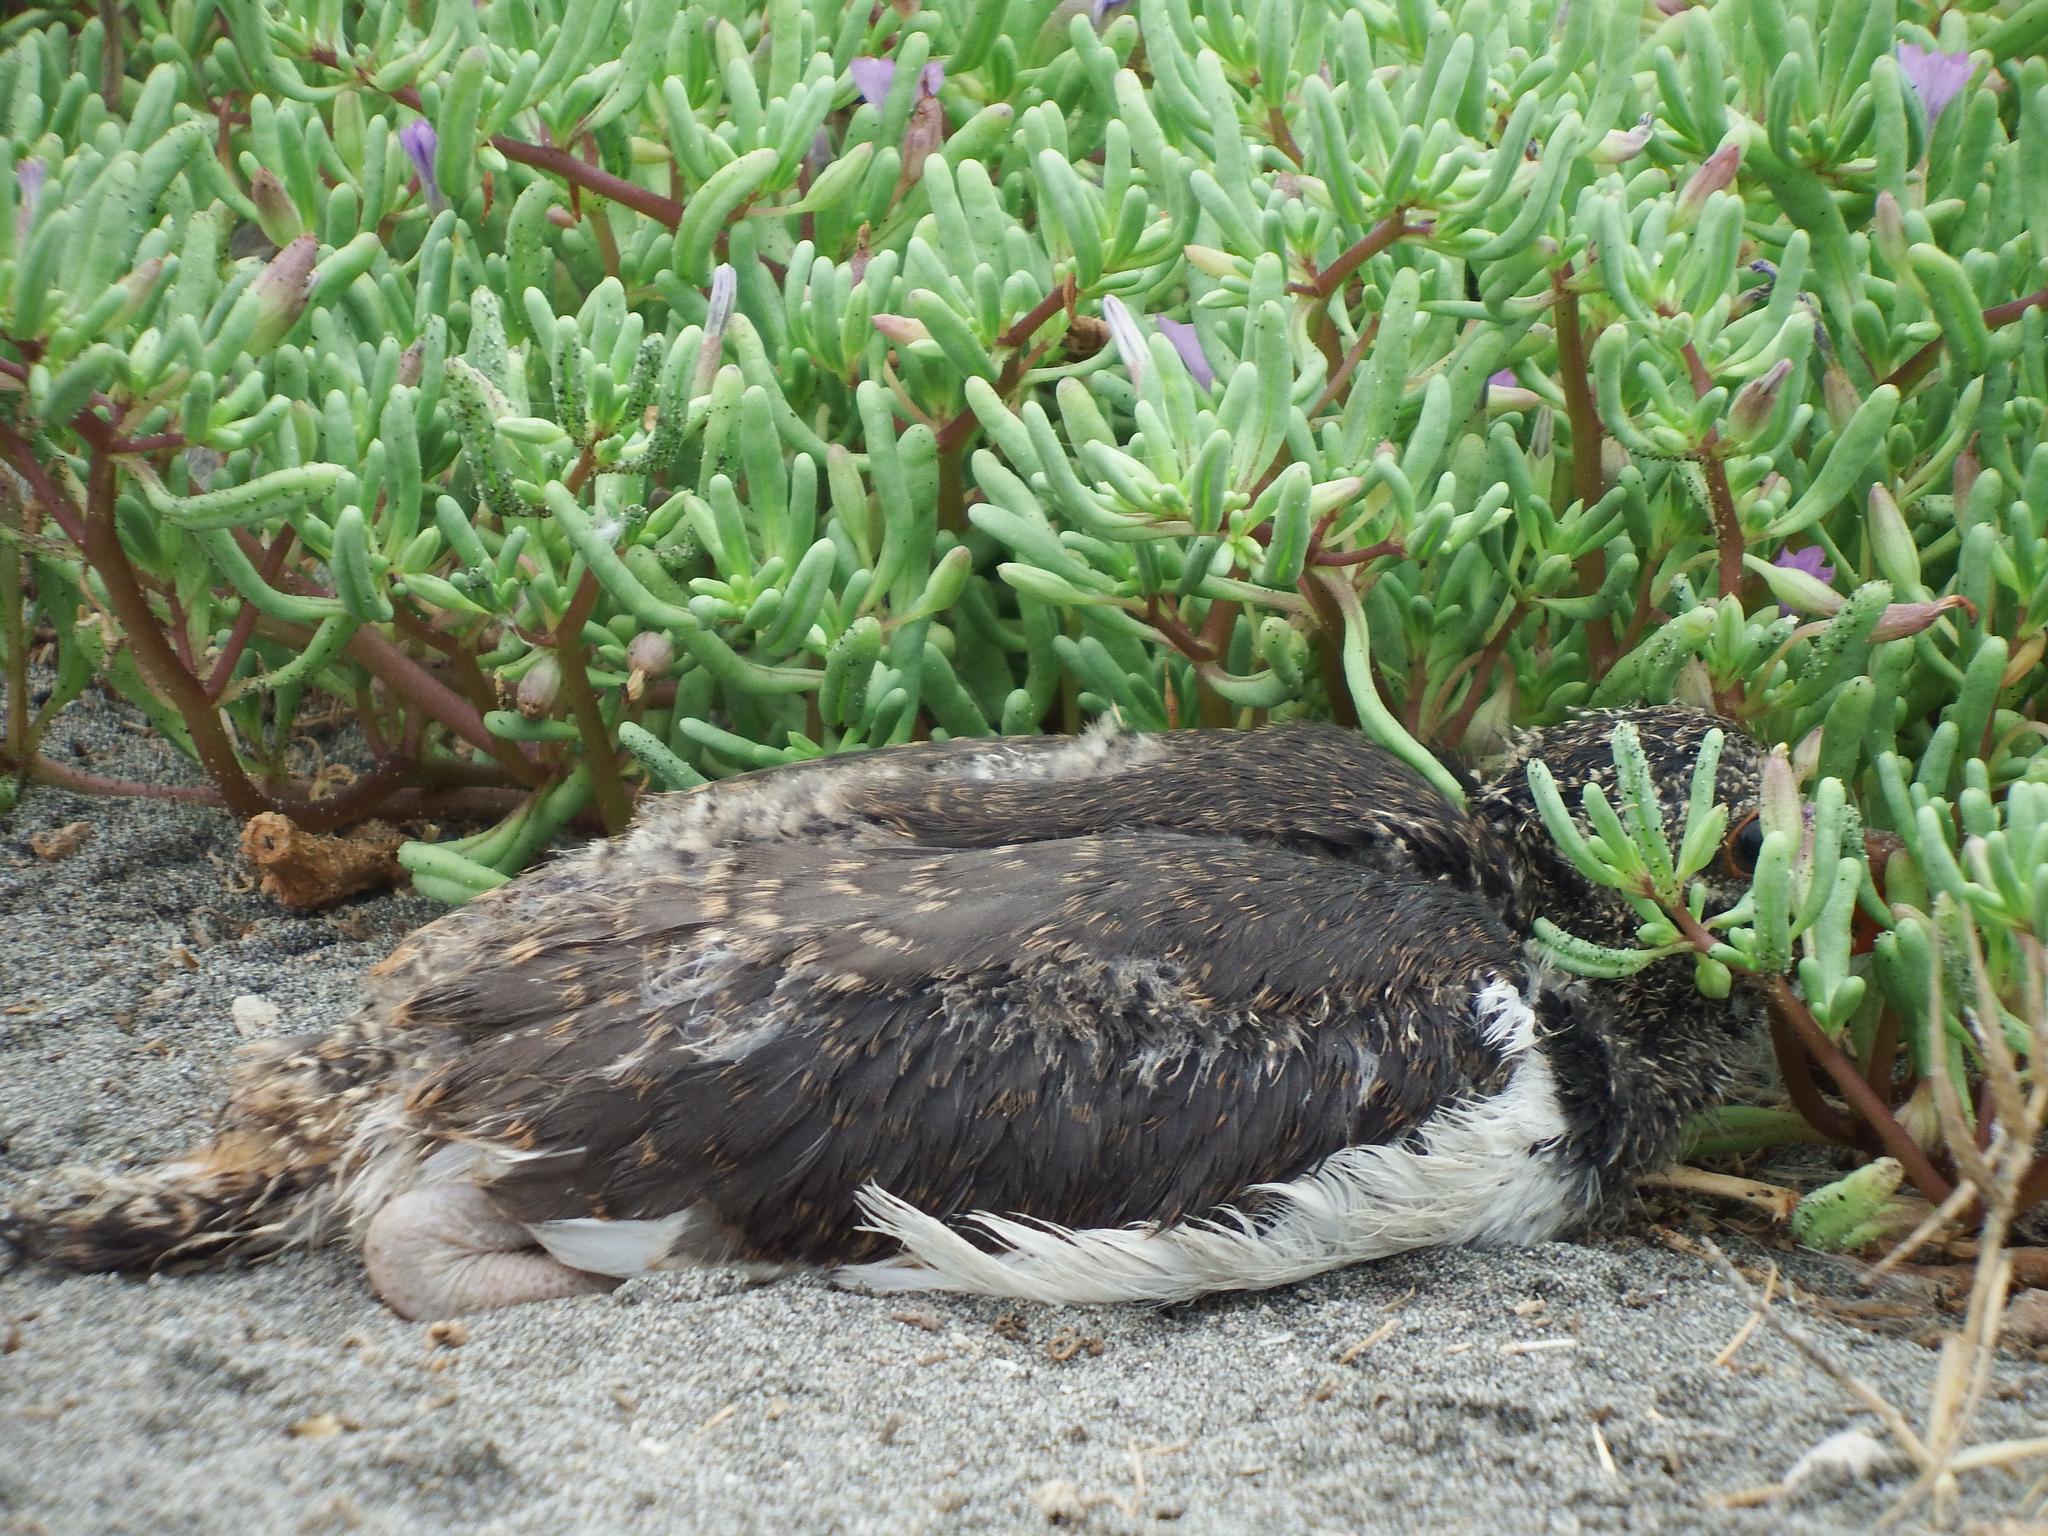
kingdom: Animalia
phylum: Chordata
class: Aves
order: Charadriiformes
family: Haematopodidae
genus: Haematopus
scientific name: Haematopus palliatus
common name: American oystercatcher
